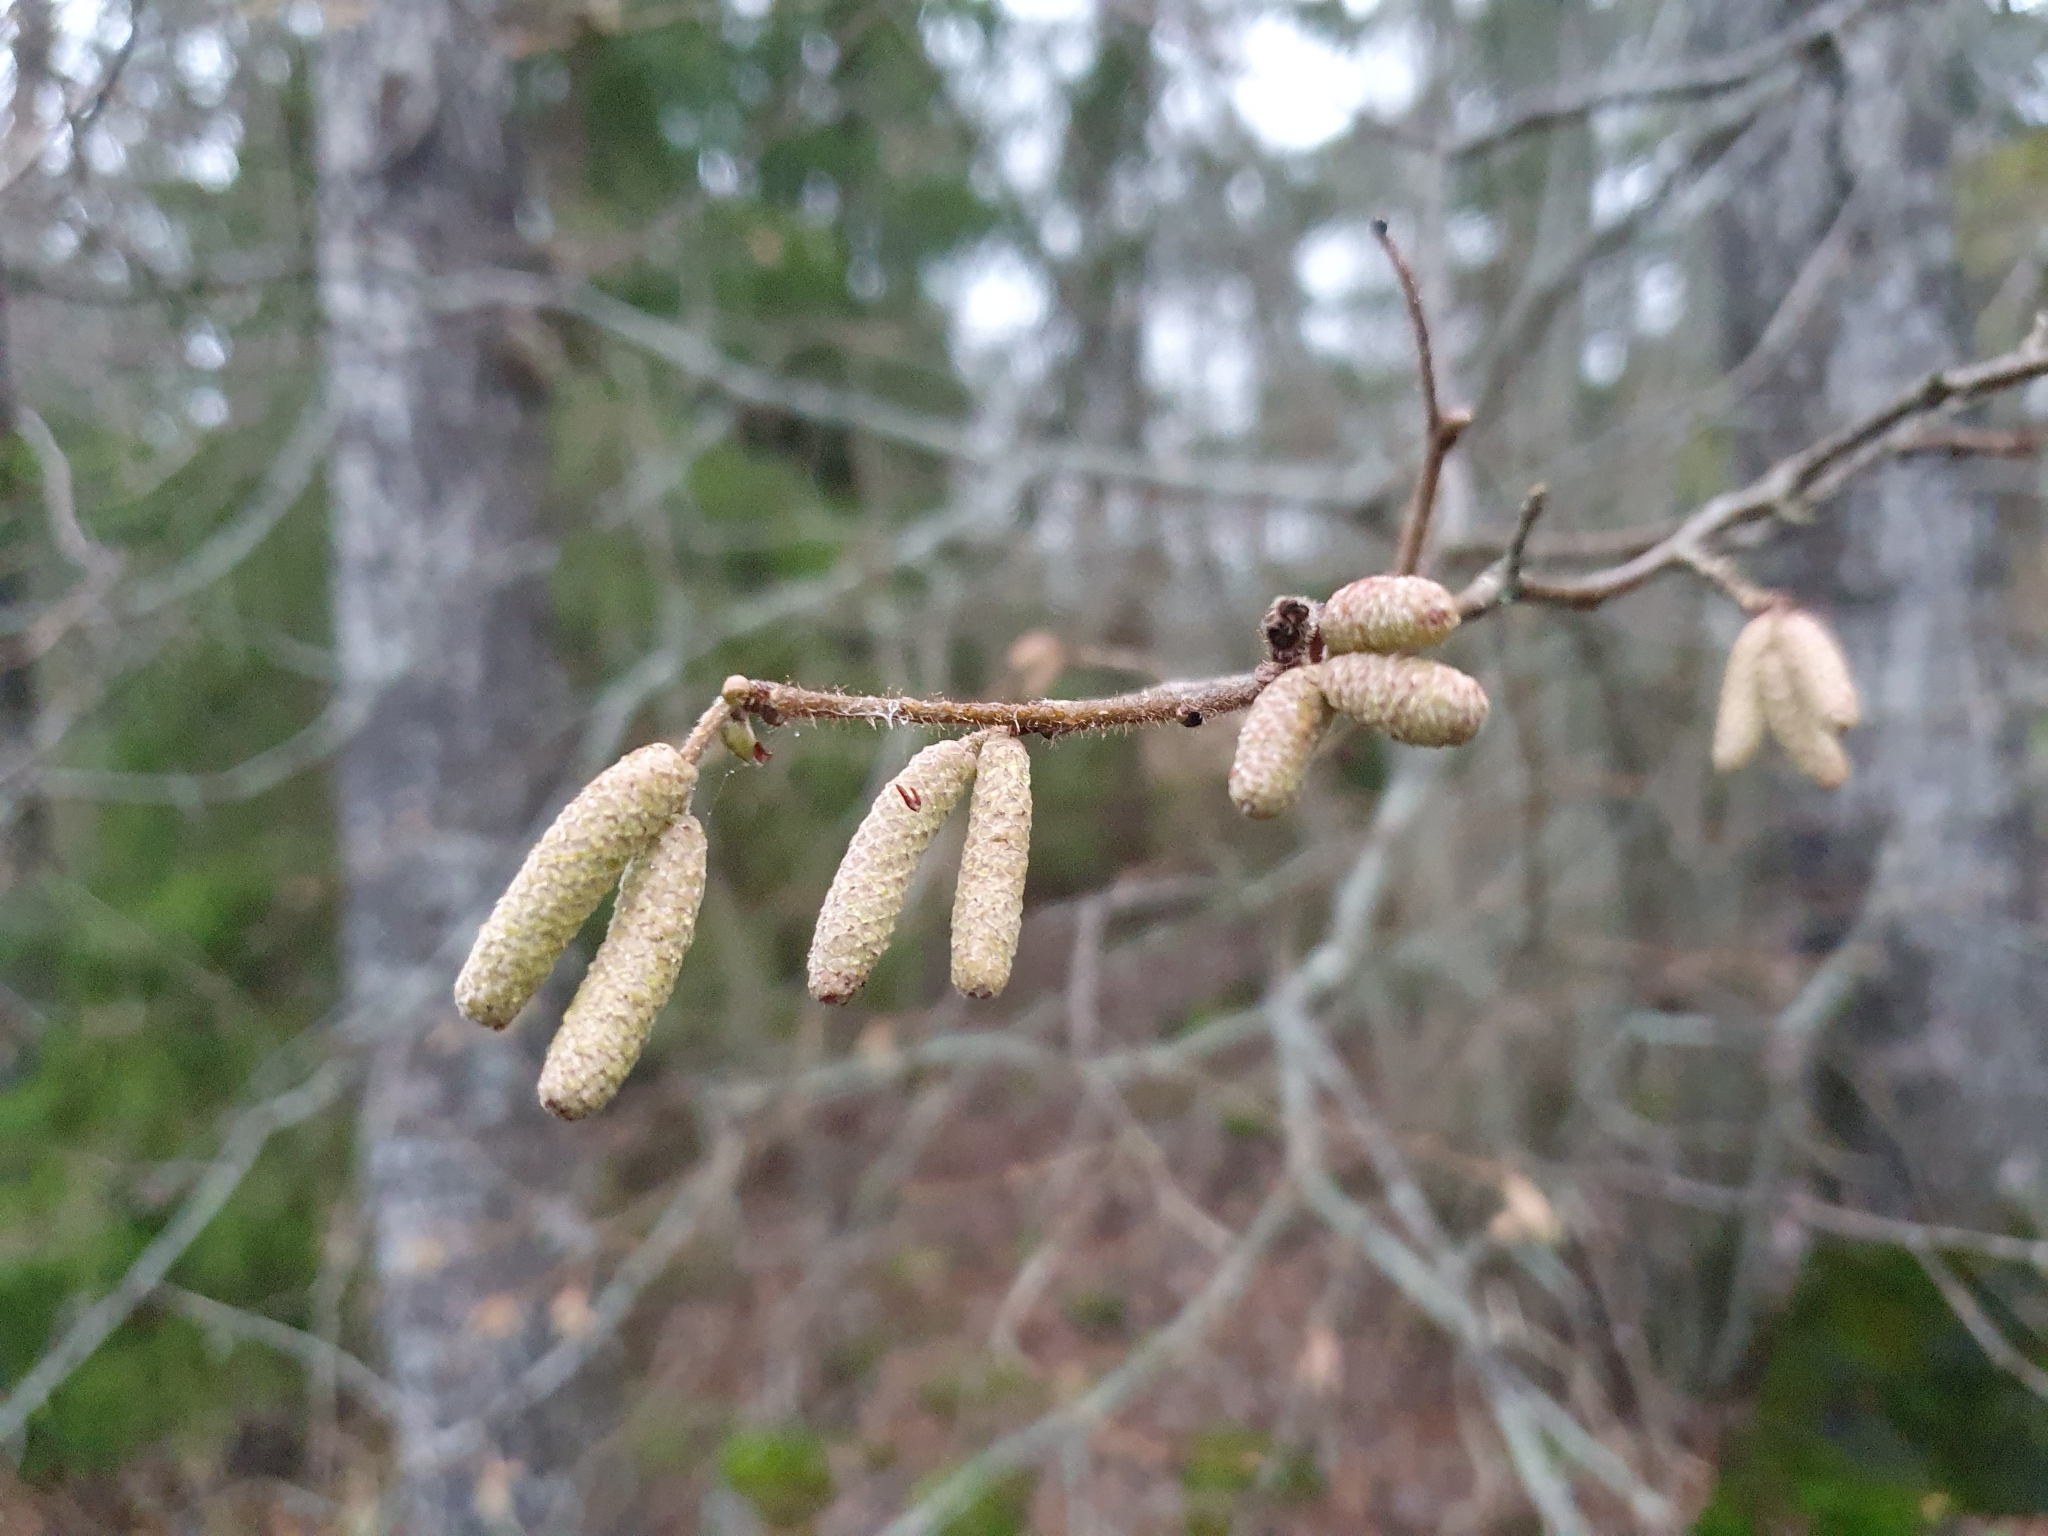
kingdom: Plantae
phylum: Tracheophyta
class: Magnoliopsida
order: Fagales
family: Betulaceae
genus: Corylus
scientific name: Corylus avellana
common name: European hazel
